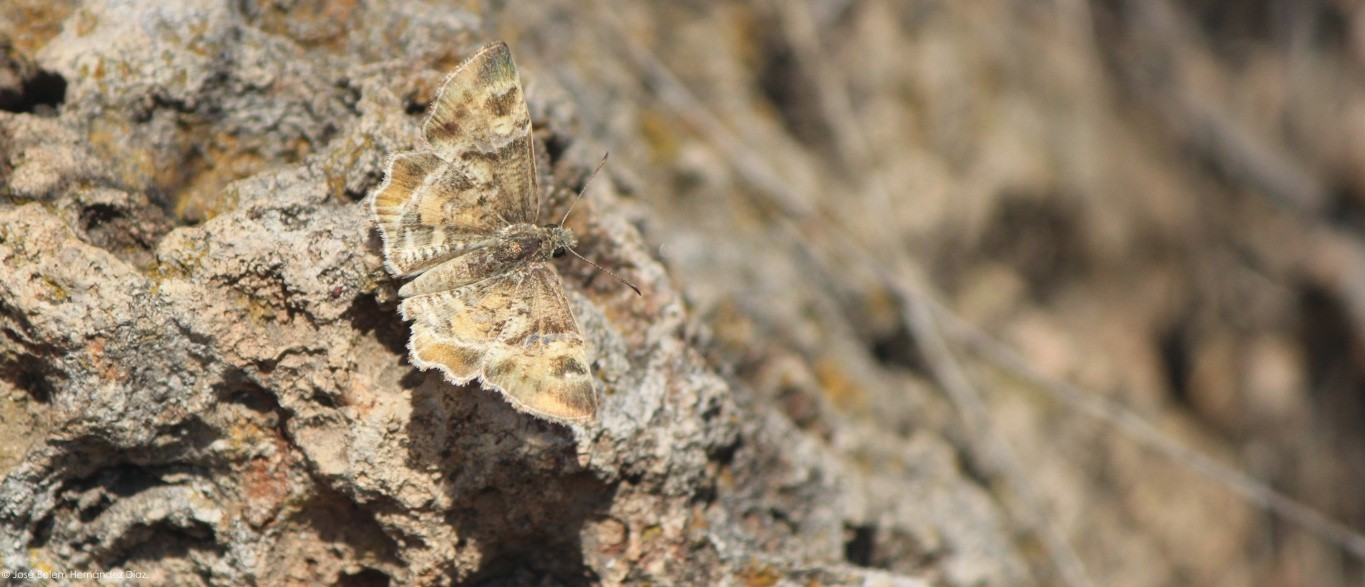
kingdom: Animalia
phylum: Arthropoda
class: Insecta
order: Lepidoptera
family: Hesperiidae
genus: Systasea
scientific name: Systasea pulverulenta
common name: Texas powdered skipper
